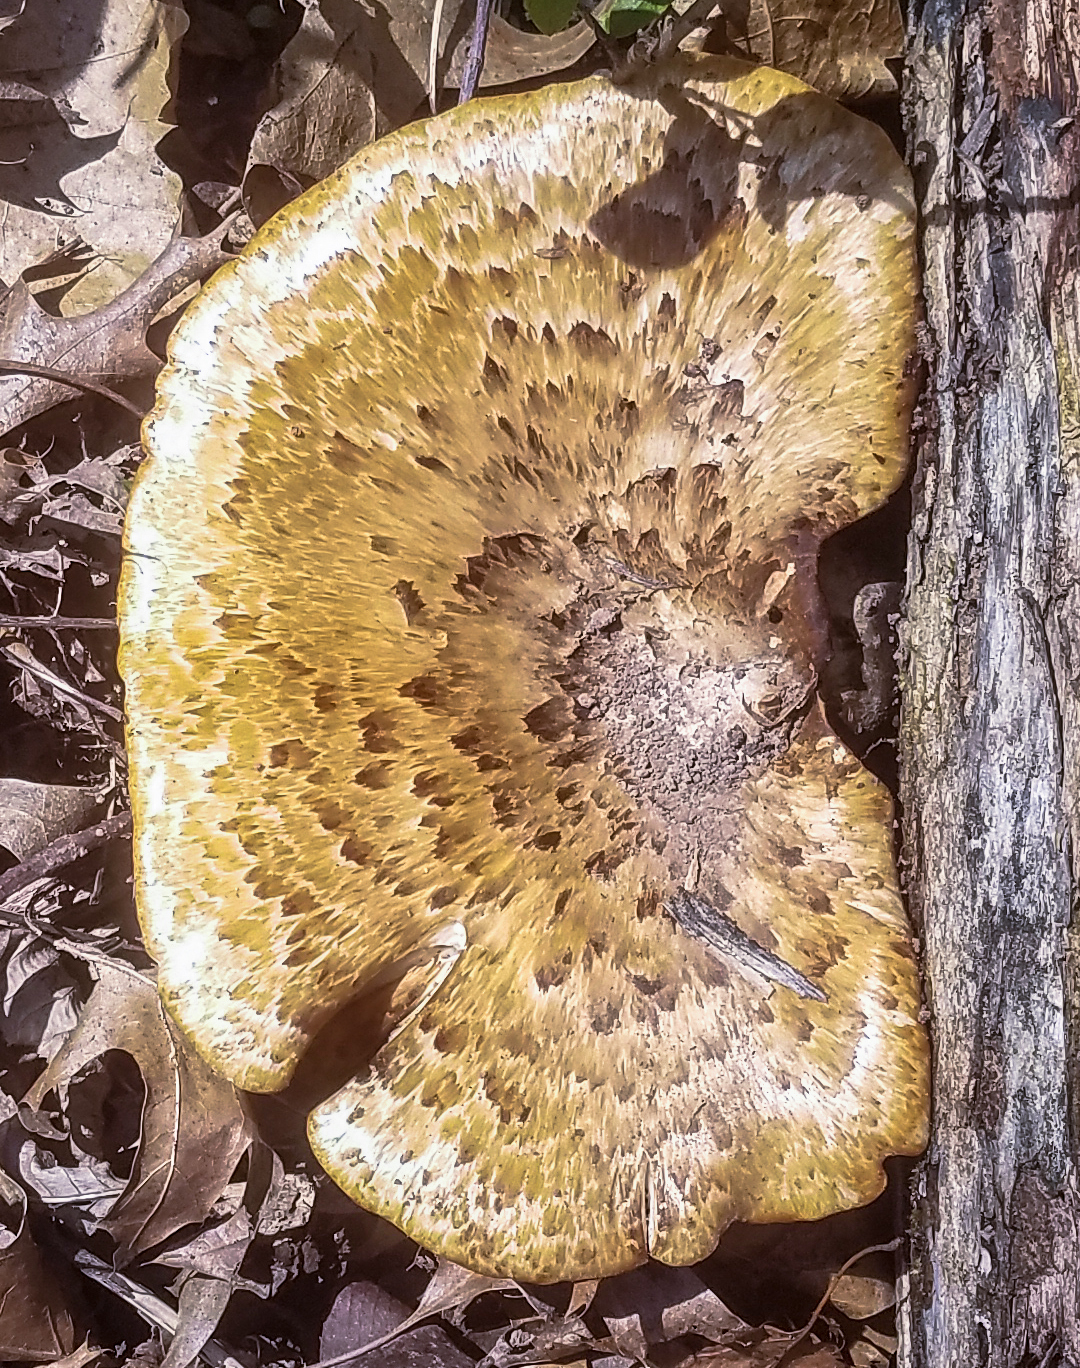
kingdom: Fungi
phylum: Basidiomycota
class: Agaricomycetes
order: Polyporales
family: Polyporaceae
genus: Cerioporus
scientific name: Cerioporus squamosus
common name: Dryad's saddle
